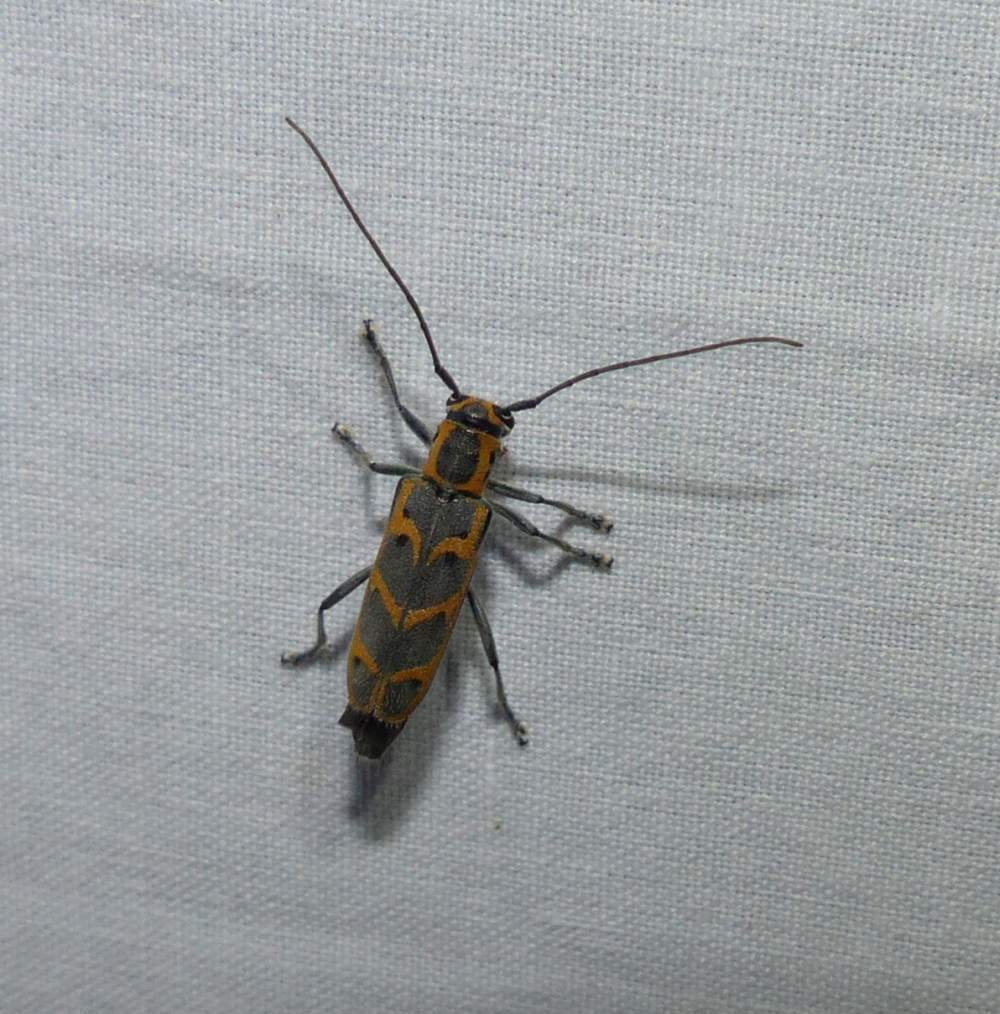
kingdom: Animalia
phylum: Arthropoda
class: Insecta
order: Coleoptera
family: Cerambycidae
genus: Saperda
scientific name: Saperda tridentata
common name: Elm borer
